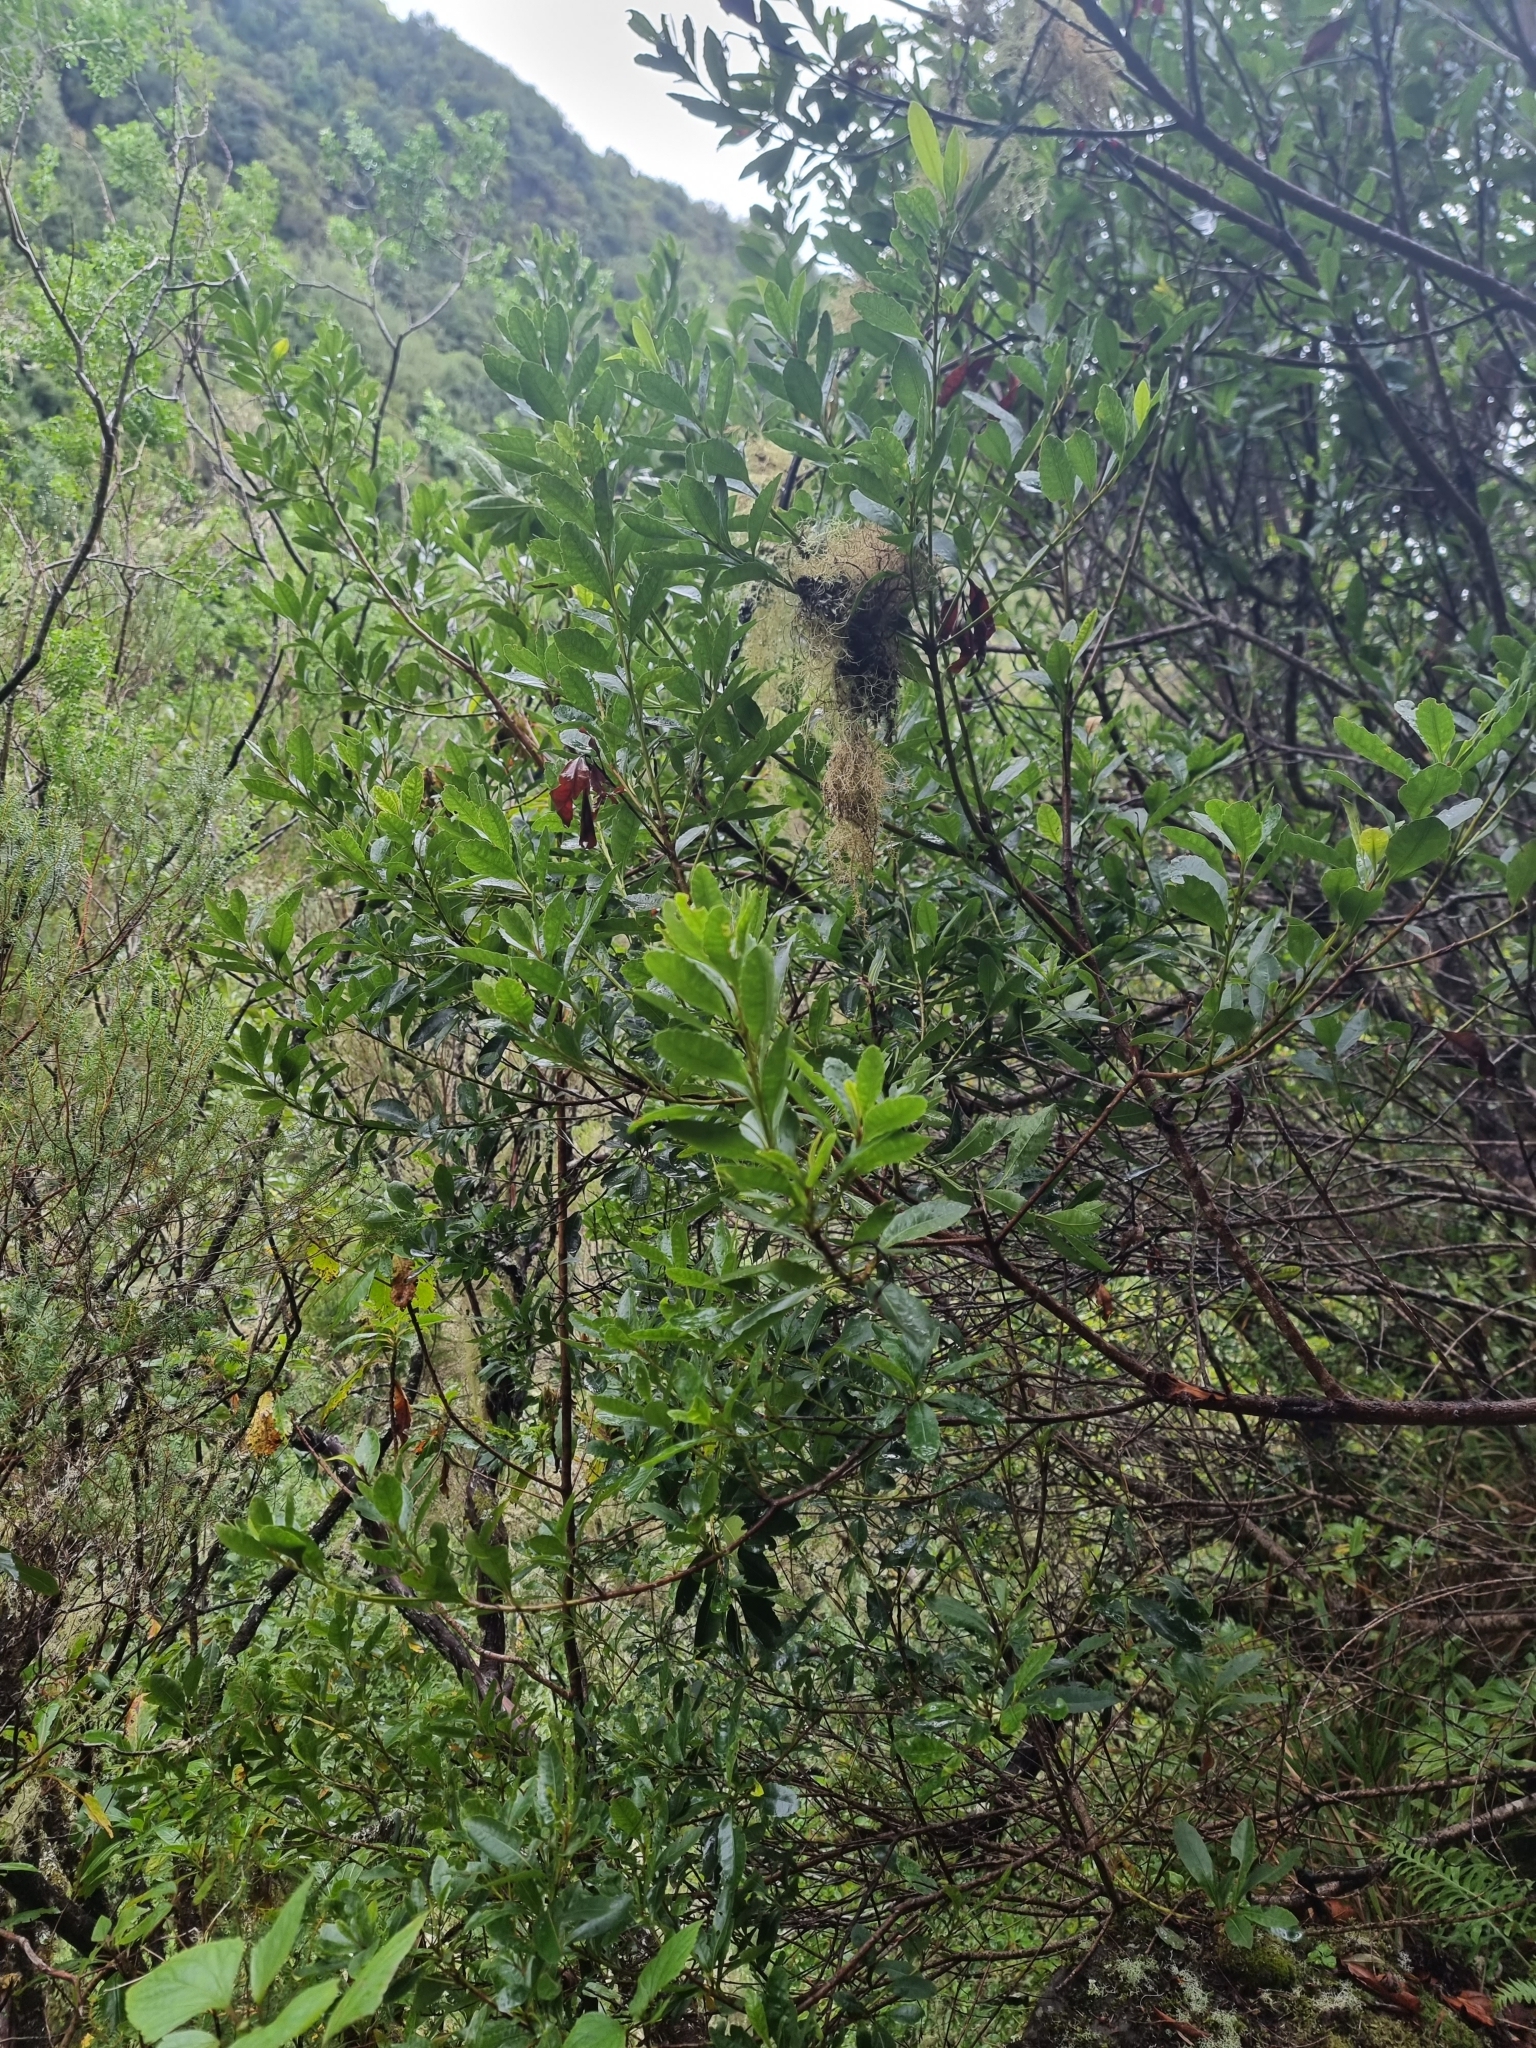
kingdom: Plantae
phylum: Tracheophyta
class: Magnoliopsida
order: Fagales
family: Myricaceae
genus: Morella
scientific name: Morella faya
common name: Firetree
